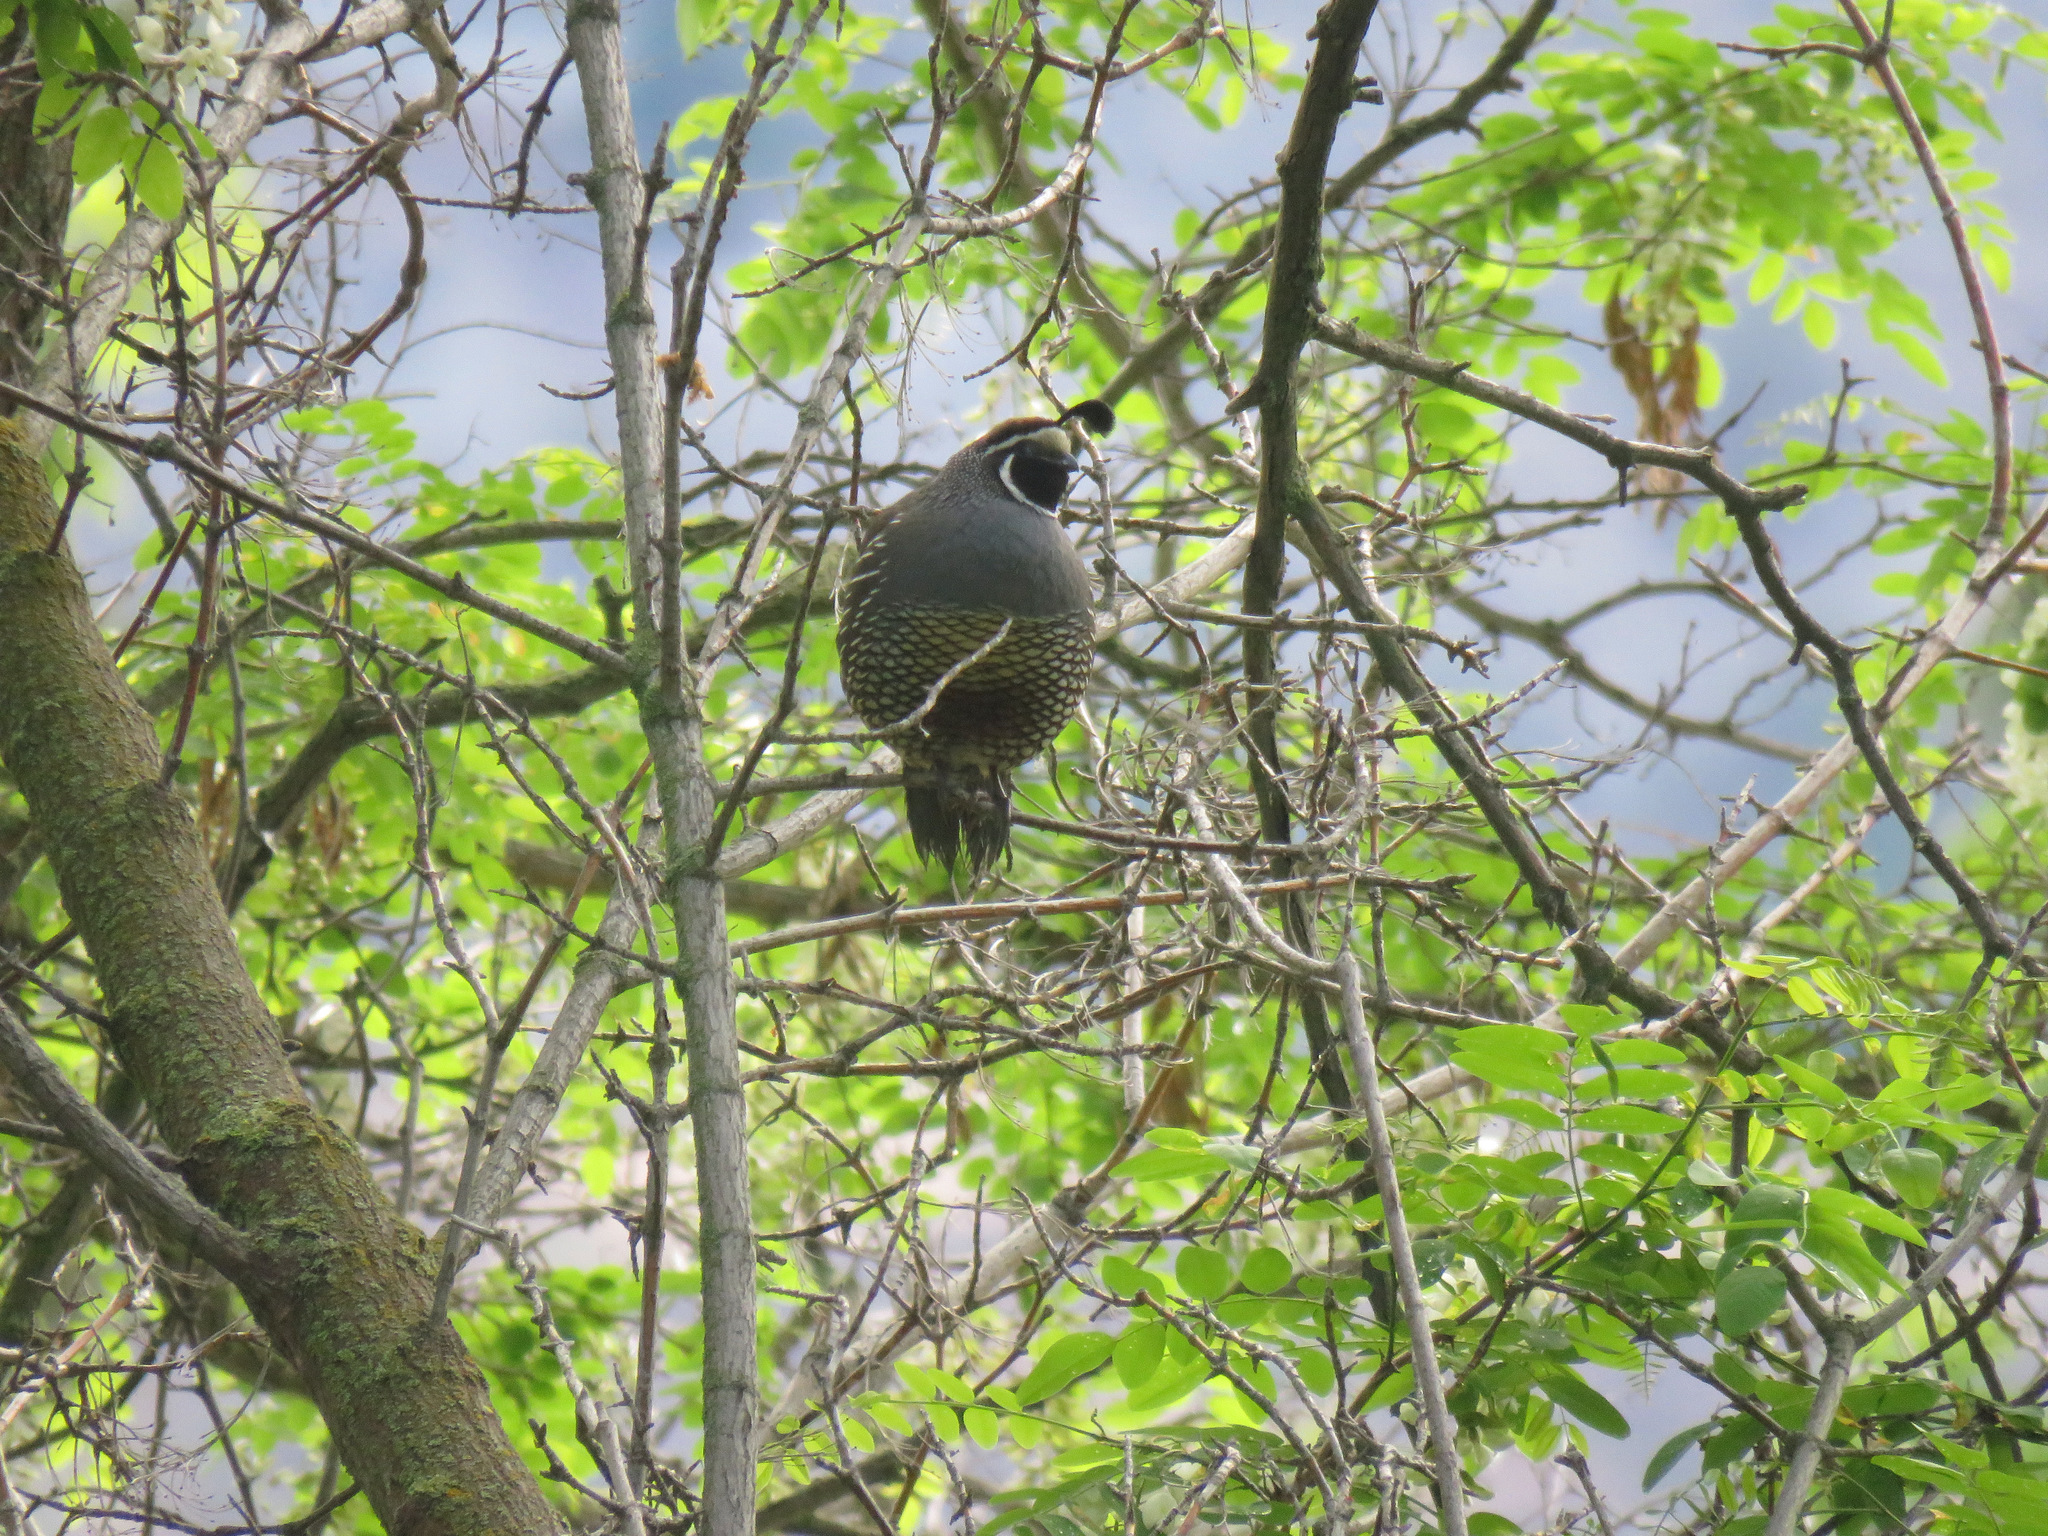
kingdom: Animalia
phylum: Chordata
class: Aves
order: Galliformes
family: Odontophoridae
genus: Callipepla
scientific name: Callipepla californica
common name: California quail
